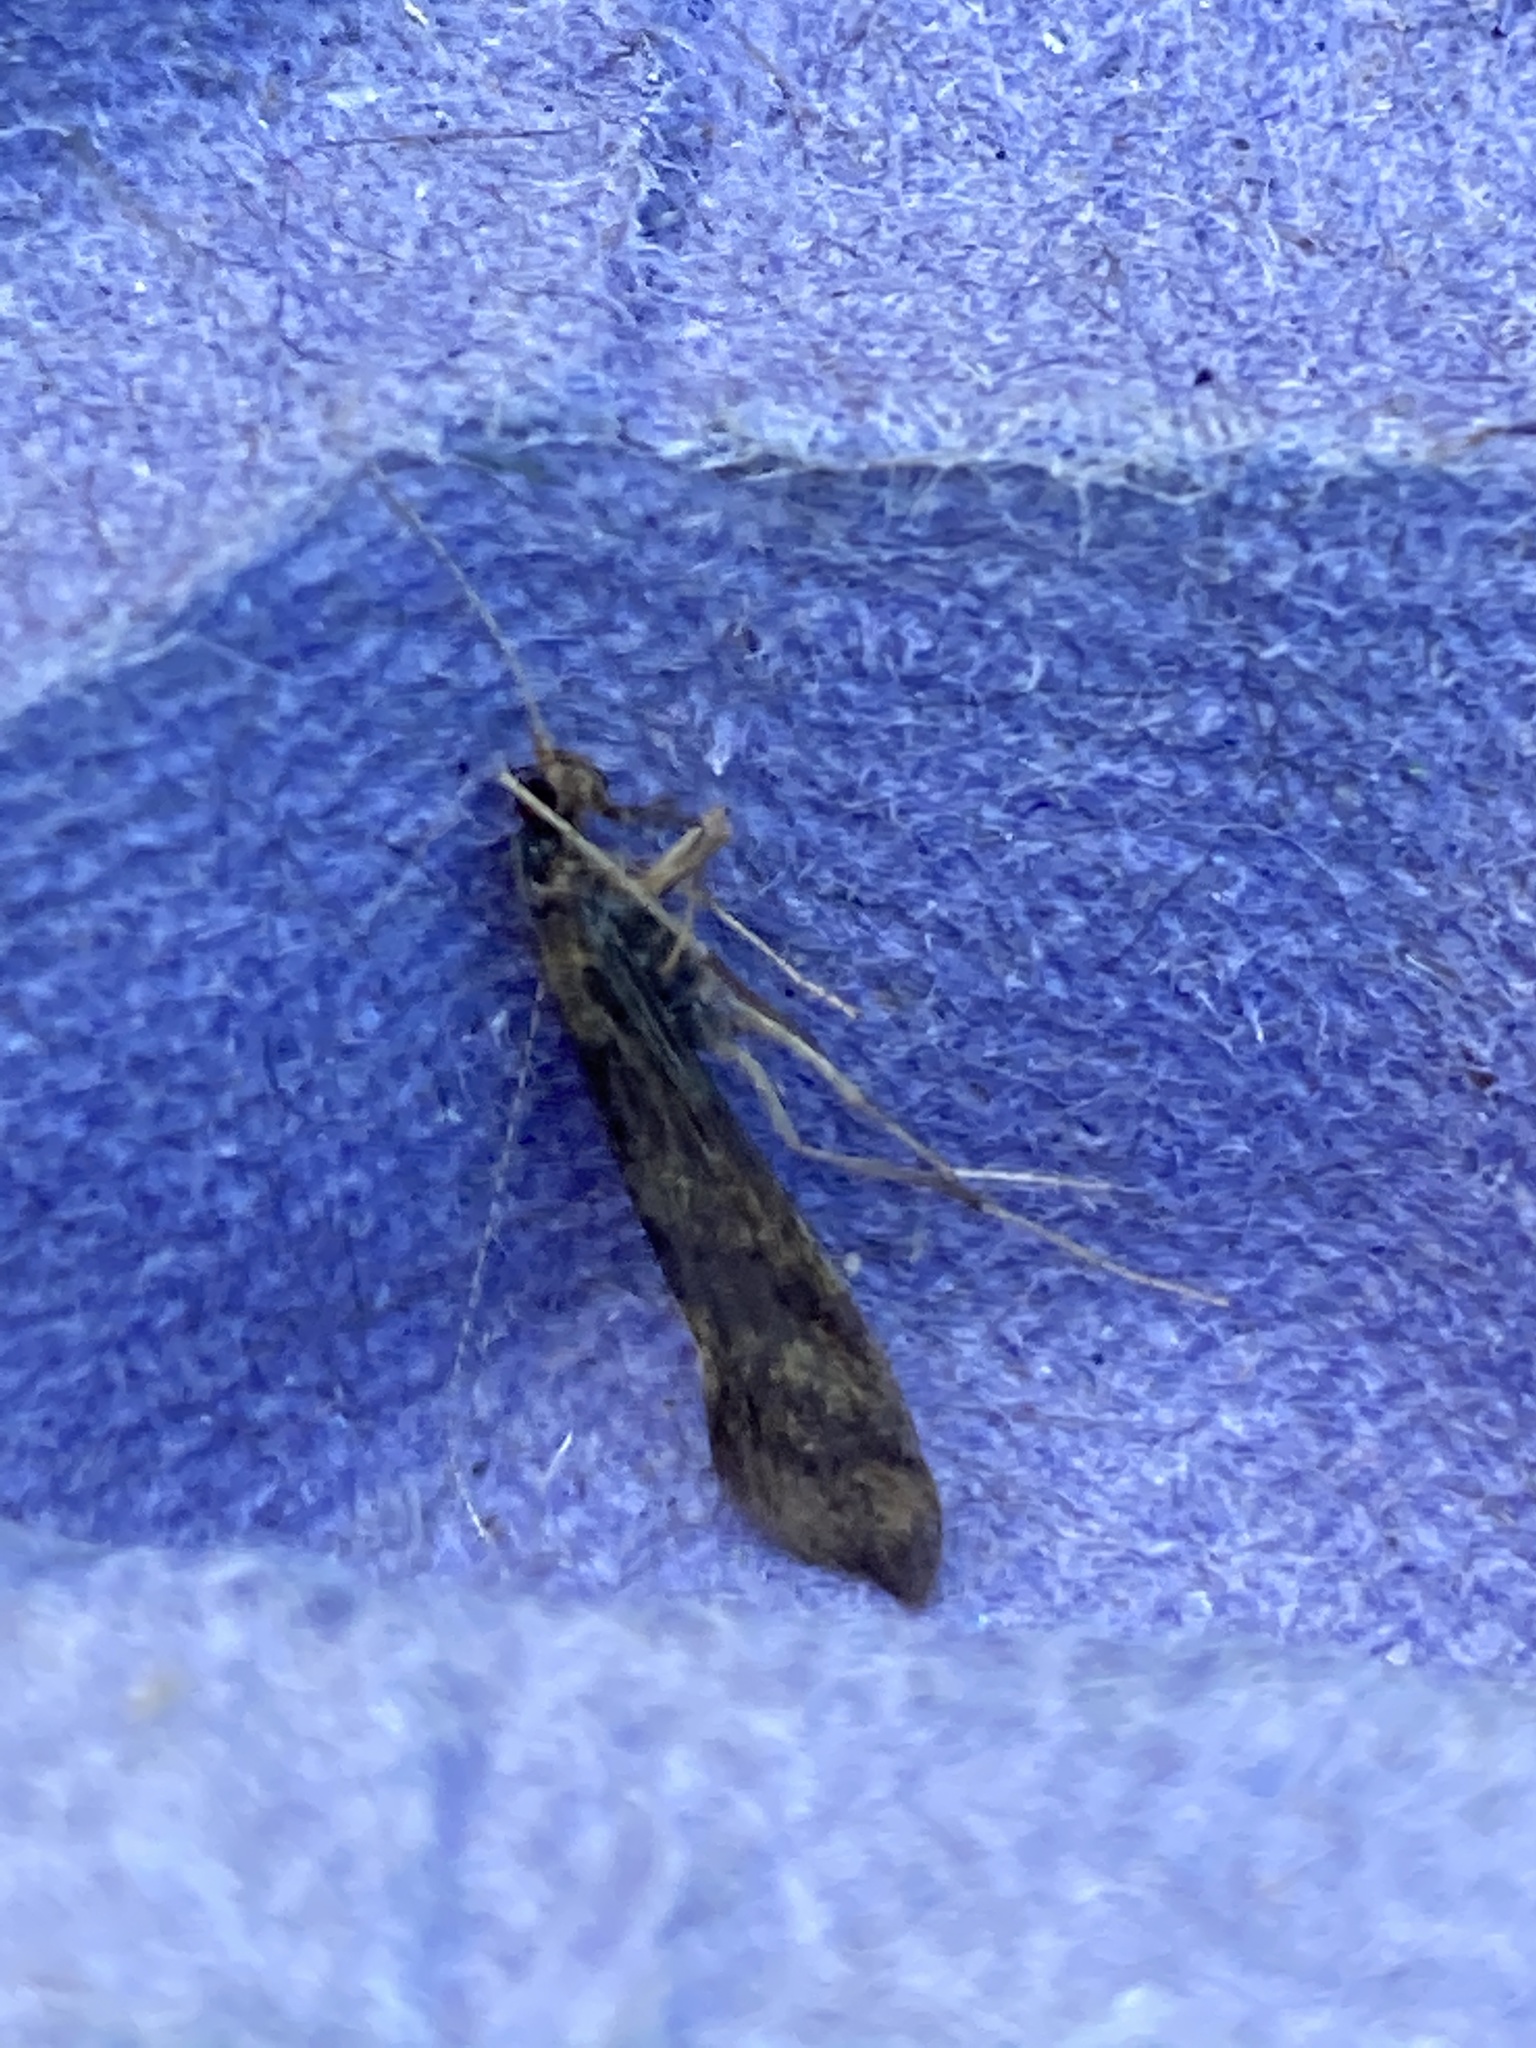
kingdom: Animalia
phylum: Arthropoda
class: Insecta
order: Trichoptera
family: Leptoceridae
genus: Mystacides
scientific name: Mystacides longicornis
